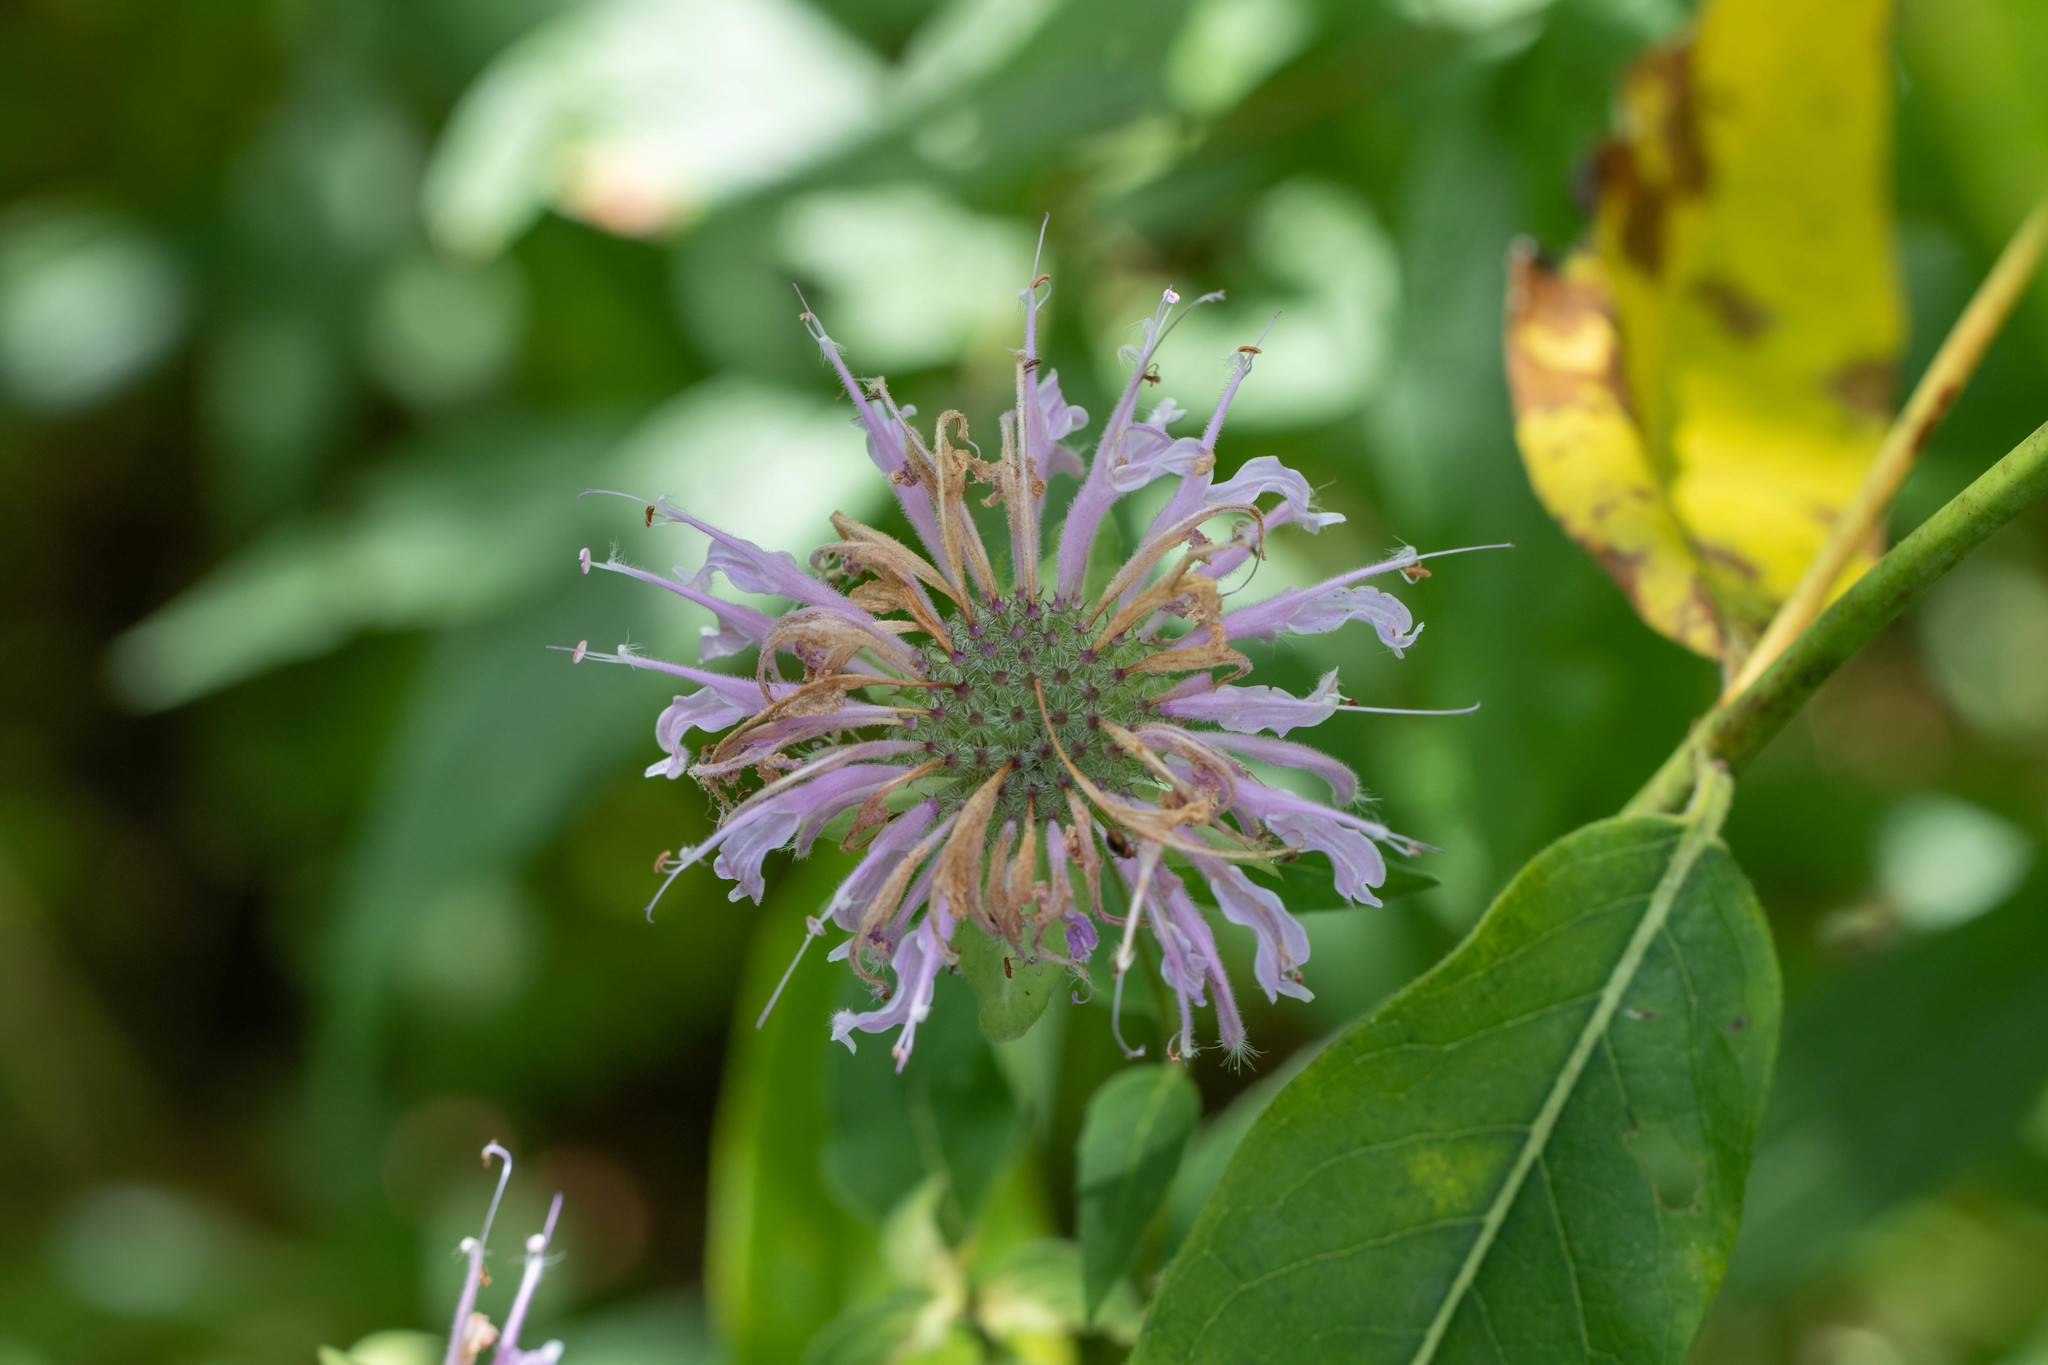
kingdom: Plantae
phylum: Tracheophyta
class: Magnoliopsida
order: Lamiales
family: Lamiaceae
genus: Monarda
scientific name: Monarda fistulosa
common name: Purple beebalm
